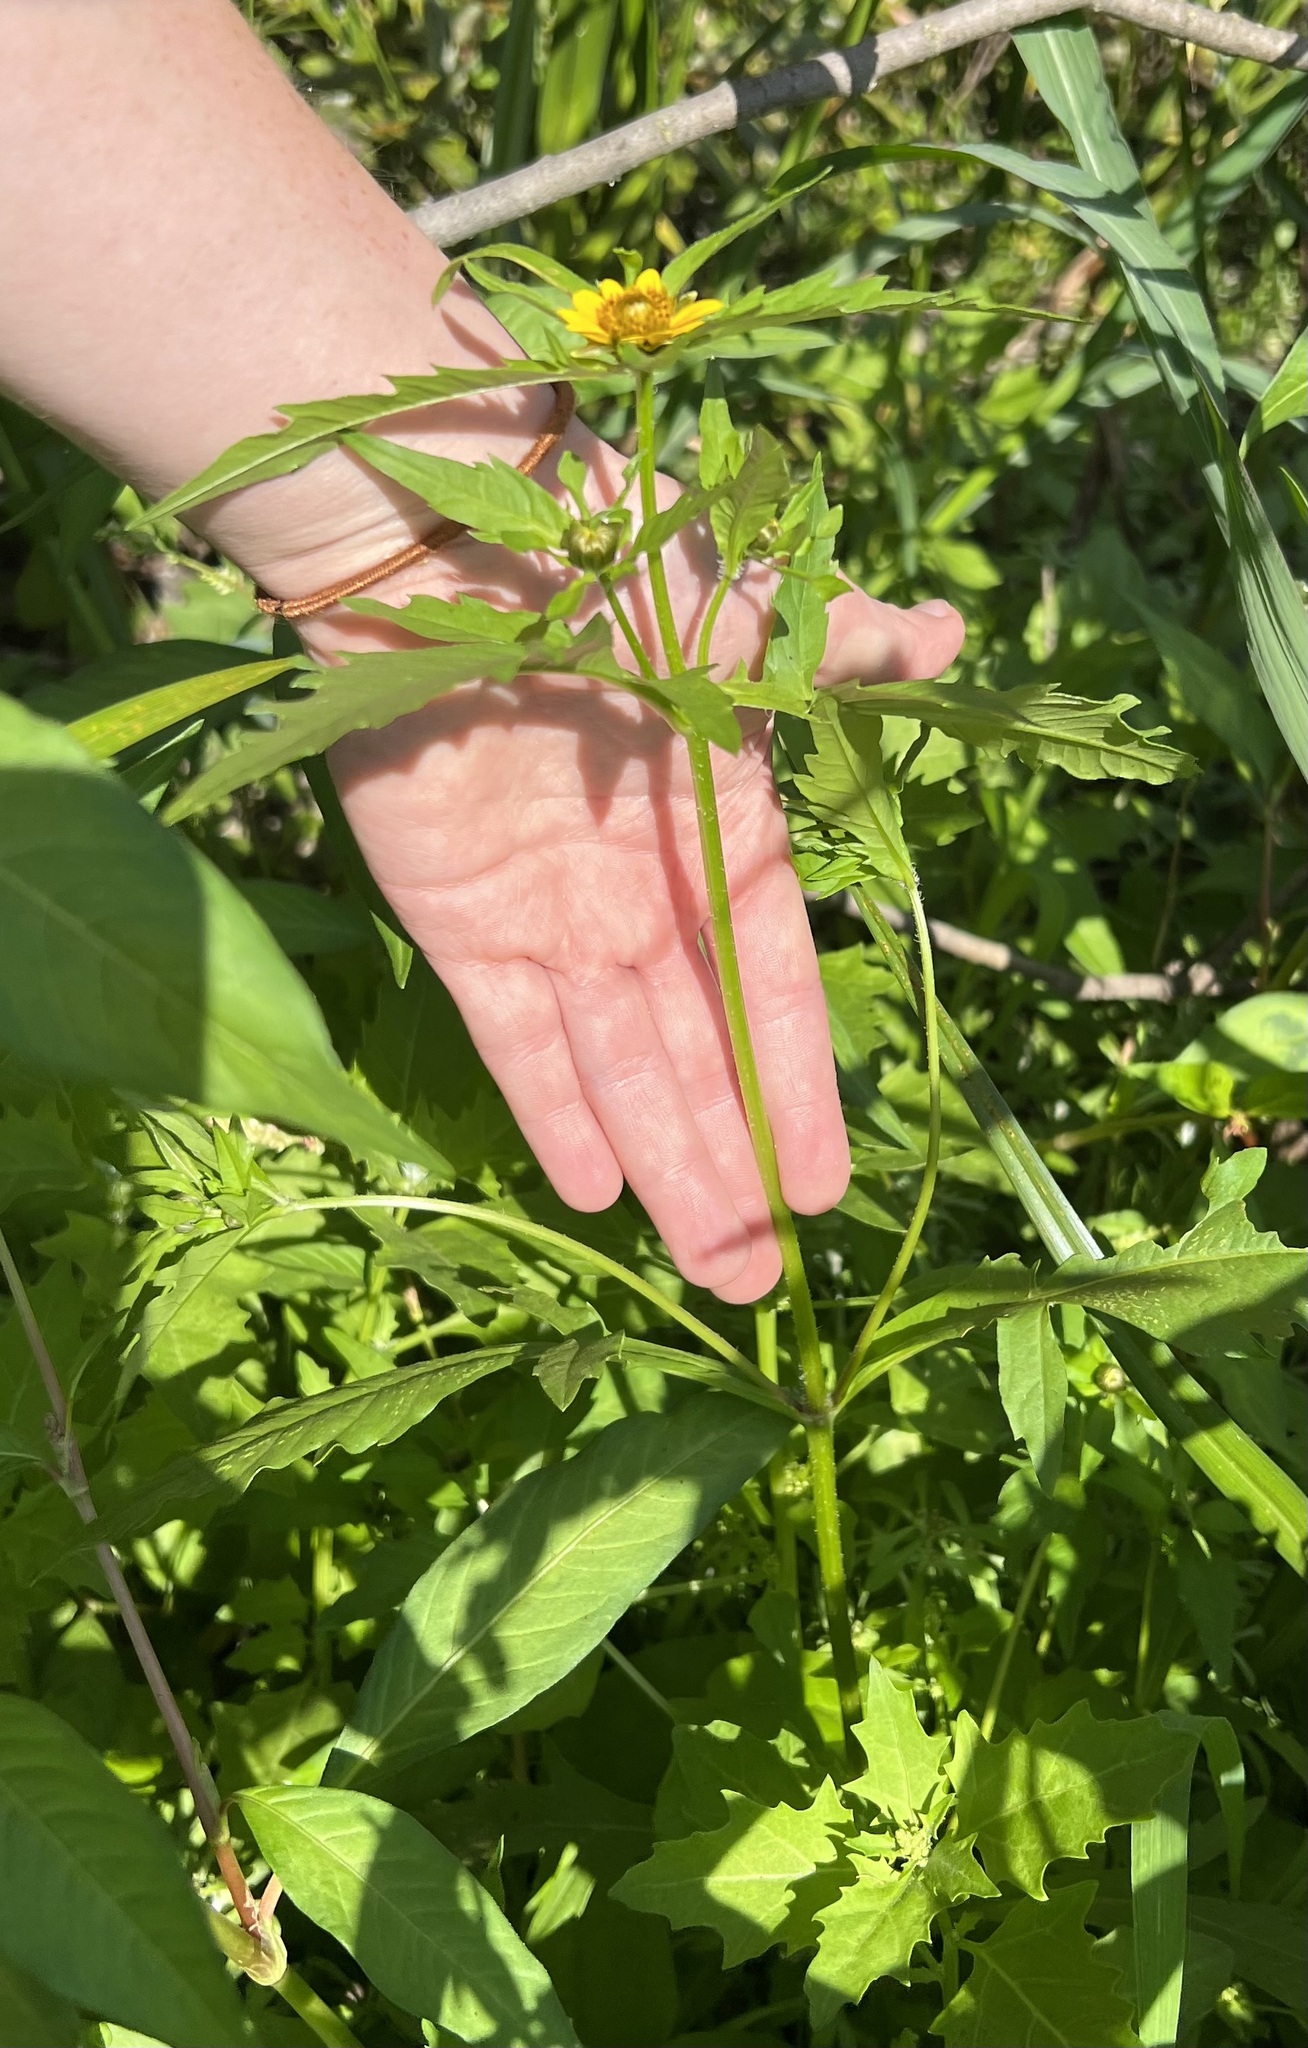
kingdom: Plantae
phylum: Tracheophyta
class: Magnoliopsida
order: Asterales
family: Asteraceae
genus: Bidens
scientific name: Bidens amplissima
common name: Vancouver island beggarticks
